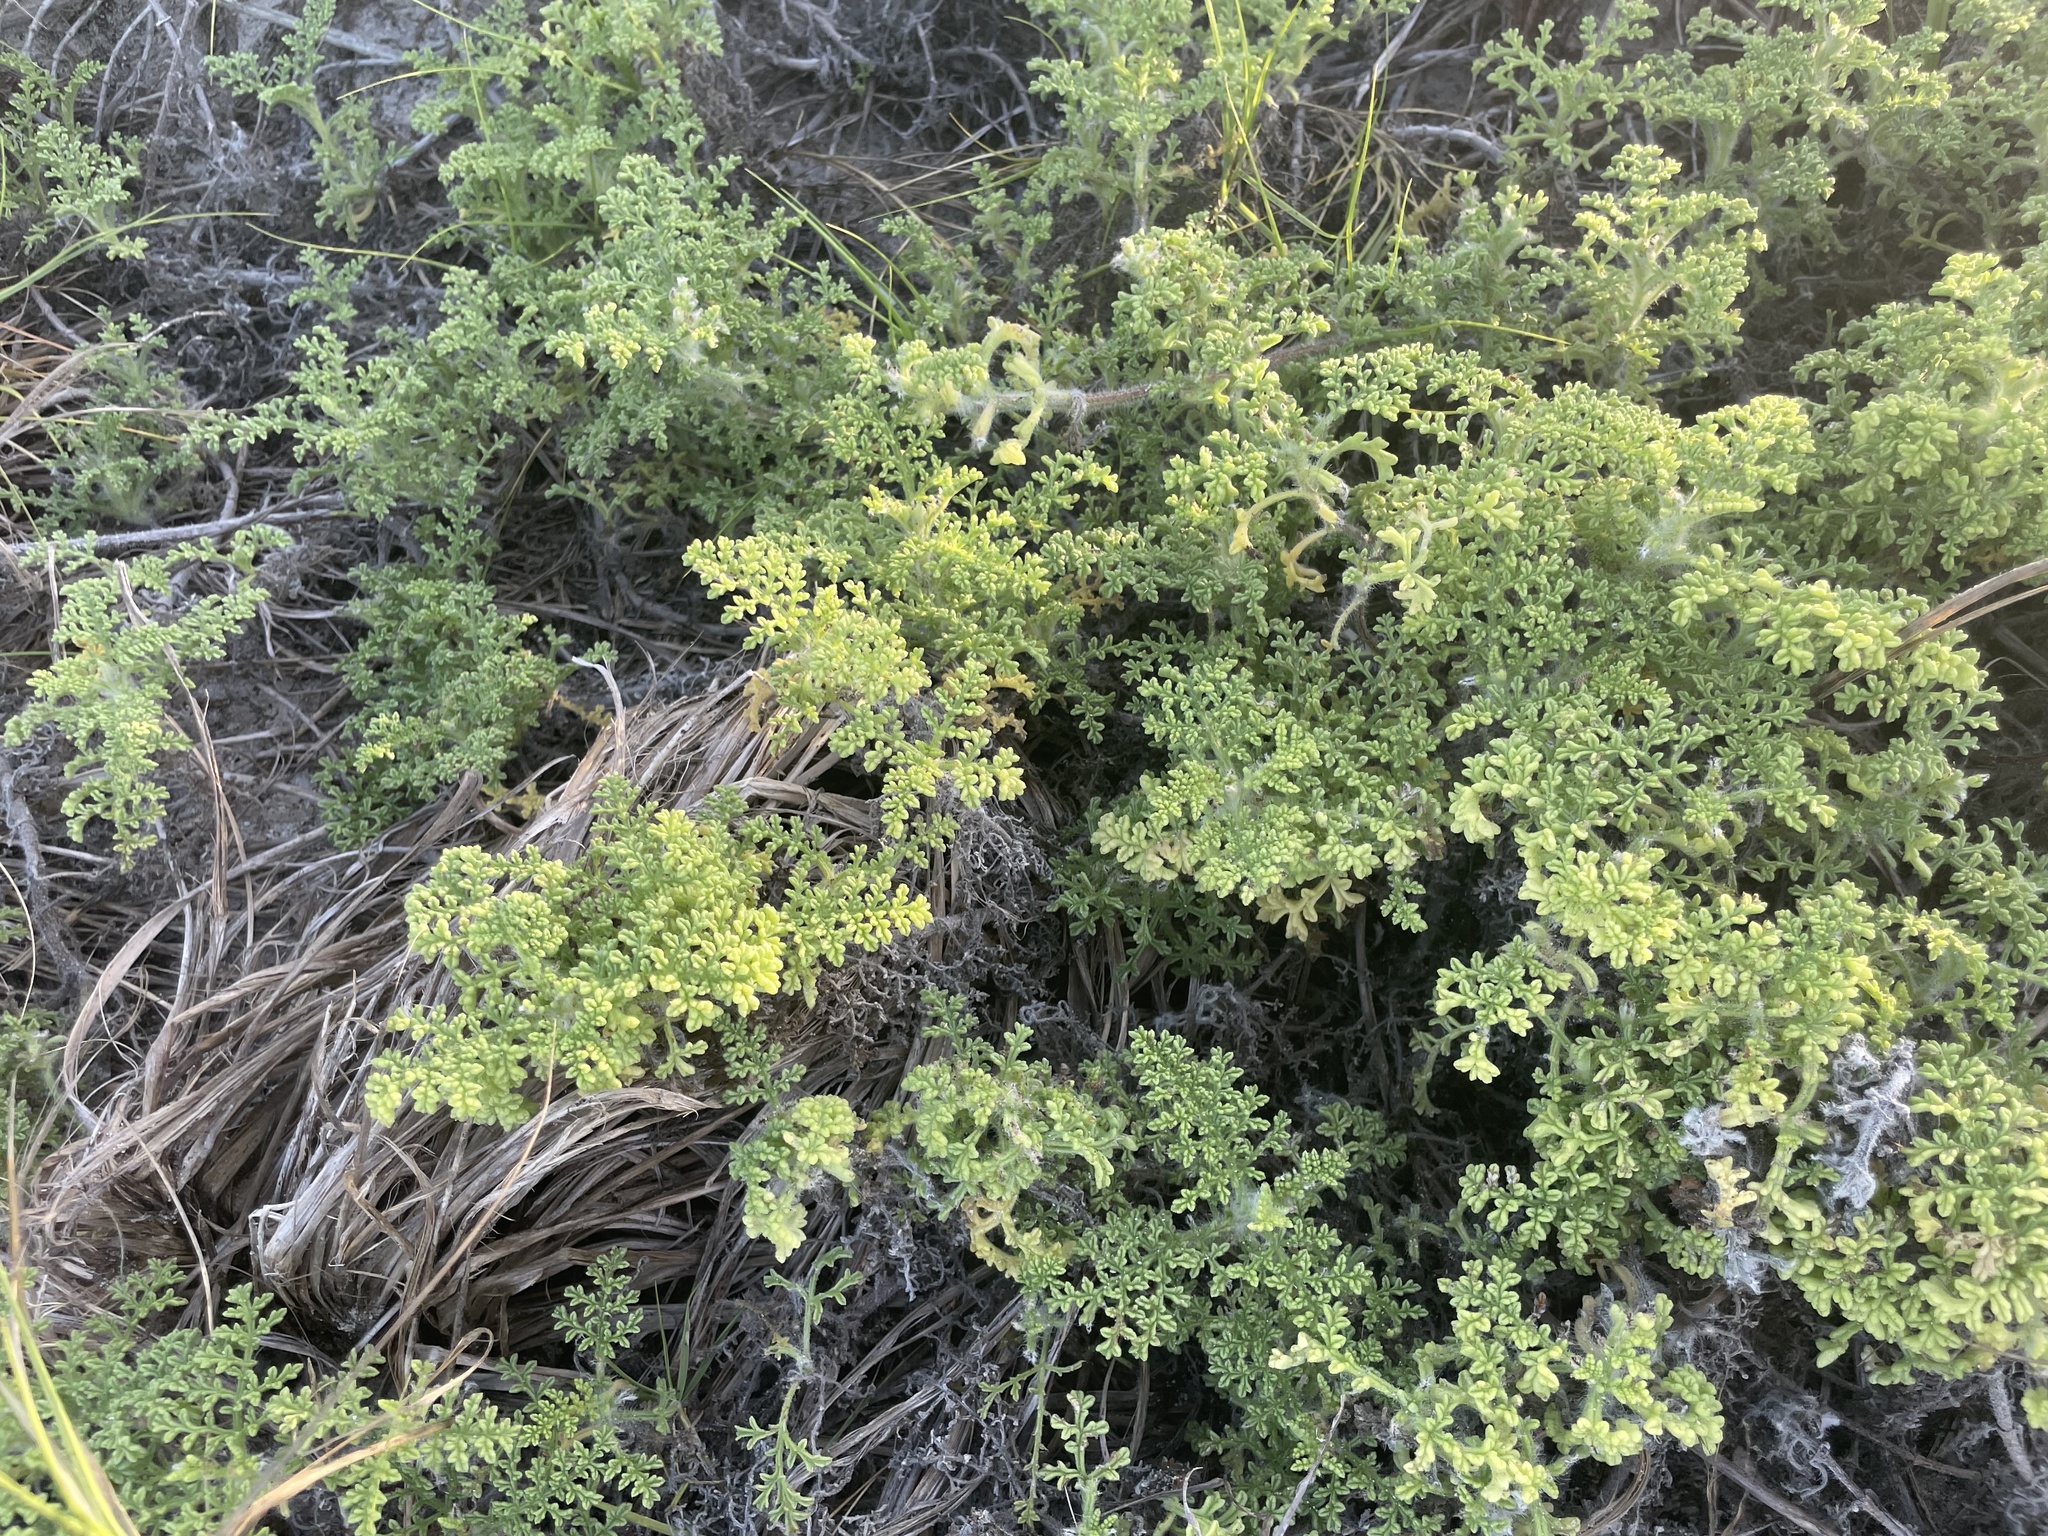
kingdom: Plantae
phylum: Tracheophyta
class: Magnoliopsida
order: Asterales
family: Asteraceae
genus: Ambrosia
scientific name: Ambrosia hispida
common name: Coastal ragweed
